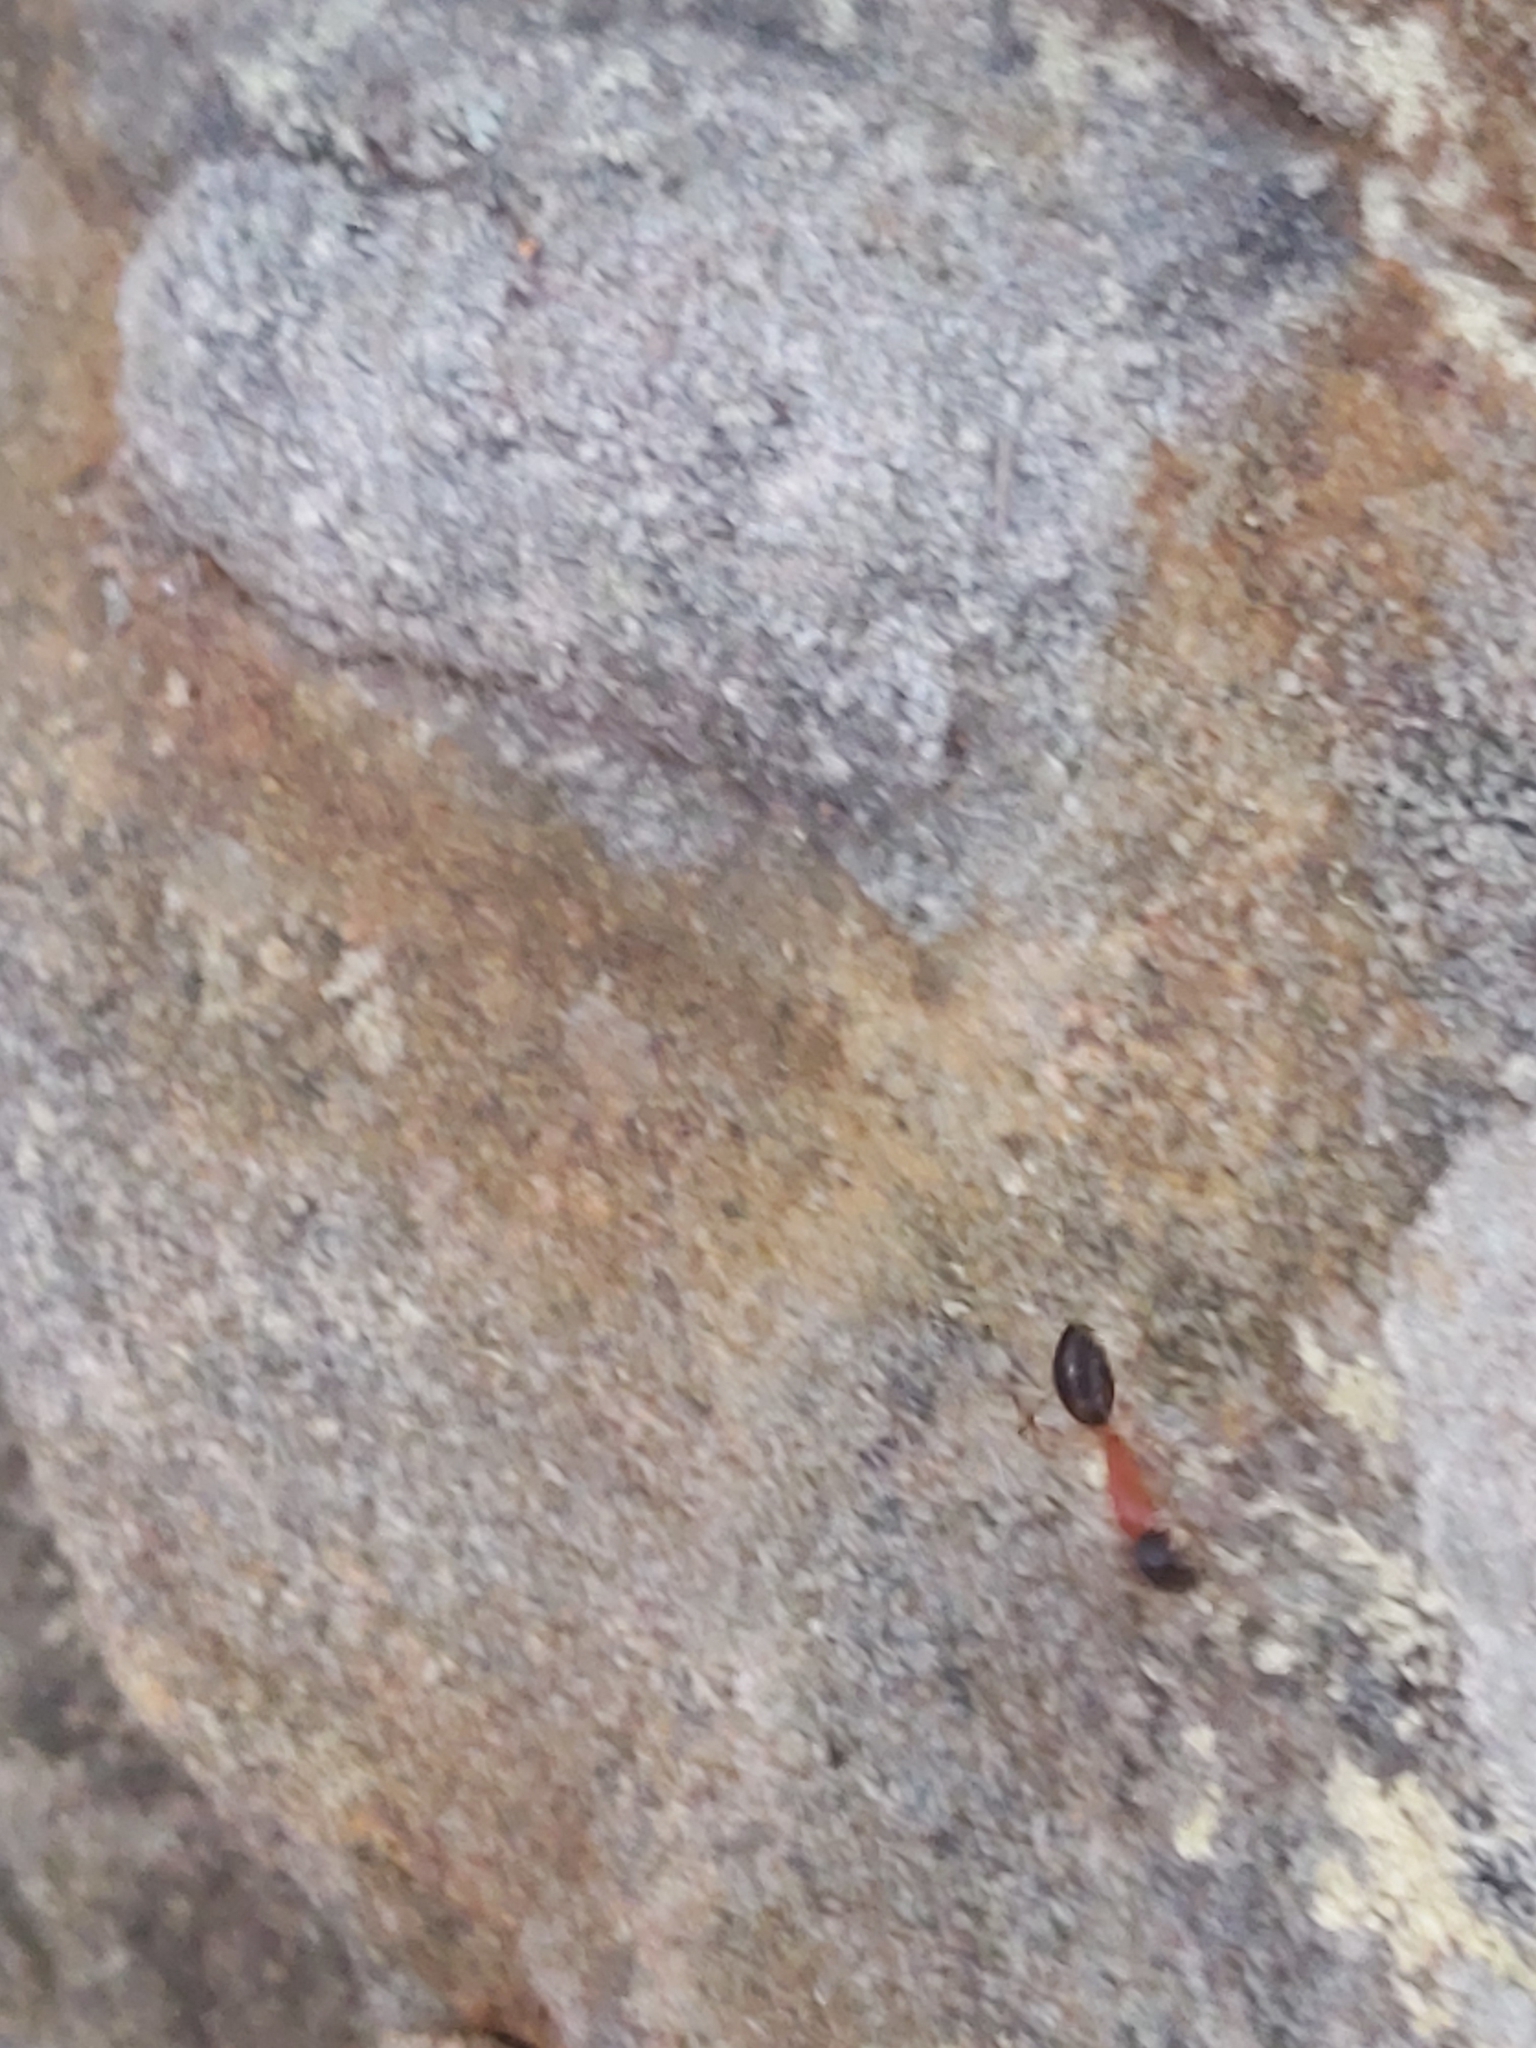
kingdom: Animalia
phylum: Arthropoda
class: Insecta
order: Hymenoptera
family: Formicidae
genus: Camponotus
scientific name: Camponotus consobrinus
